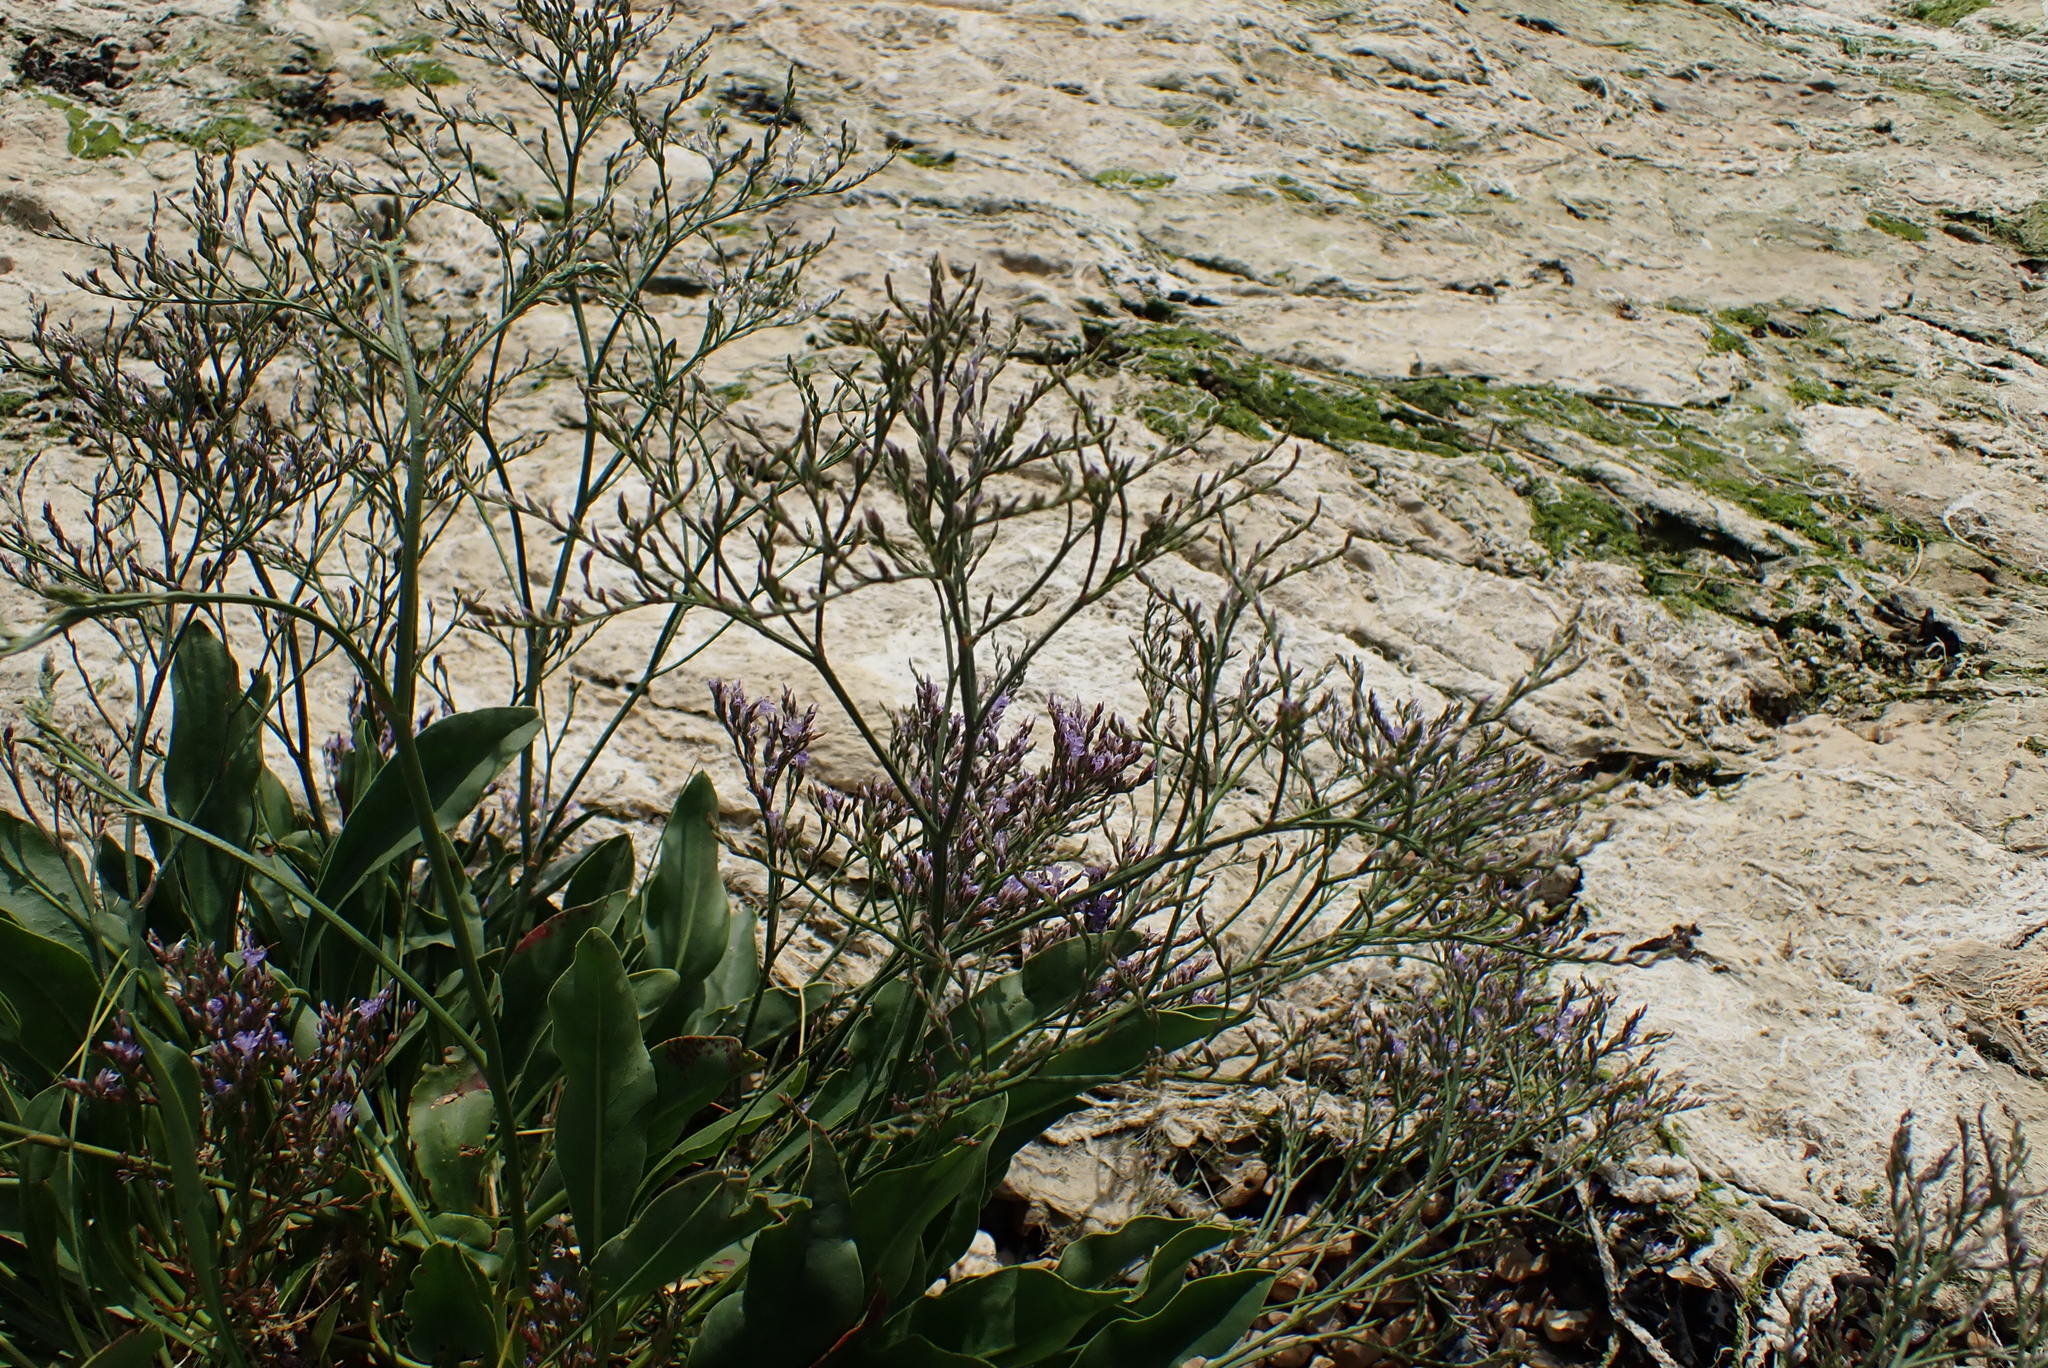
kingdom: Plantae
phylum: Tracheophyta
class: Magnoliopsida
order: Caryophyllales
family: Plumbaginaceae
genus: Limonium
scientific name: Limonium vulgare
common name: Common sea-lavender
